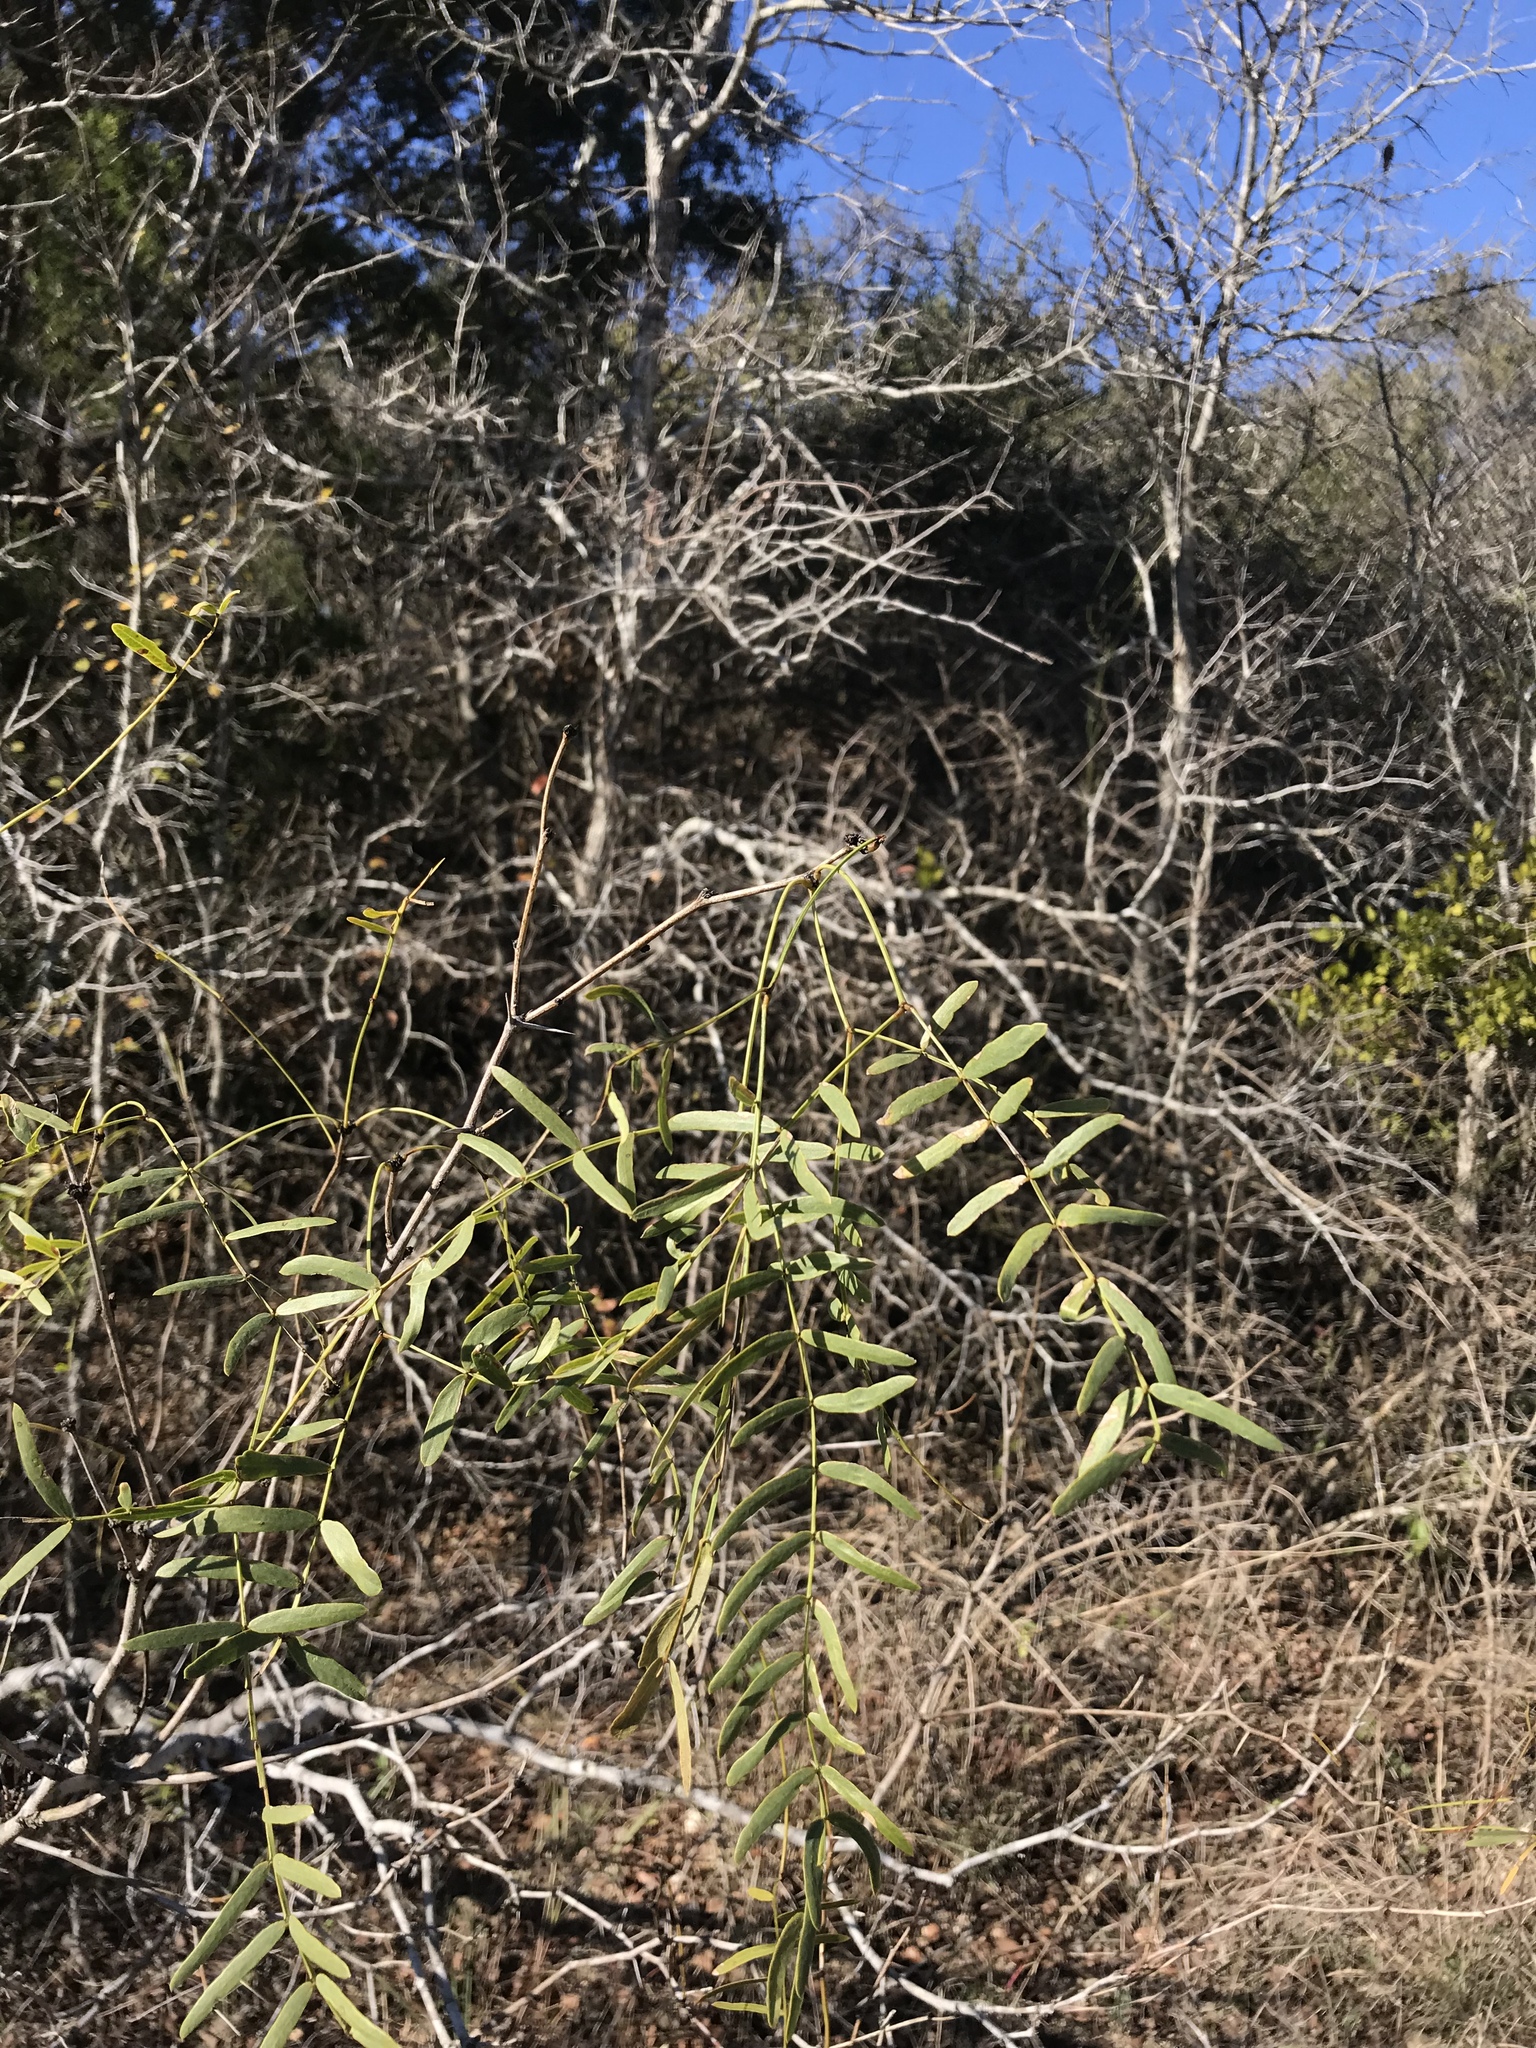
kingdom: Plantae
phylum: Tracheophyta
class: Magnoliopsida
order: Fabales
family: Fabaceae
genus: Prosopis
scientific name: Prosopis glandulosa
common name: Honey mesquite
